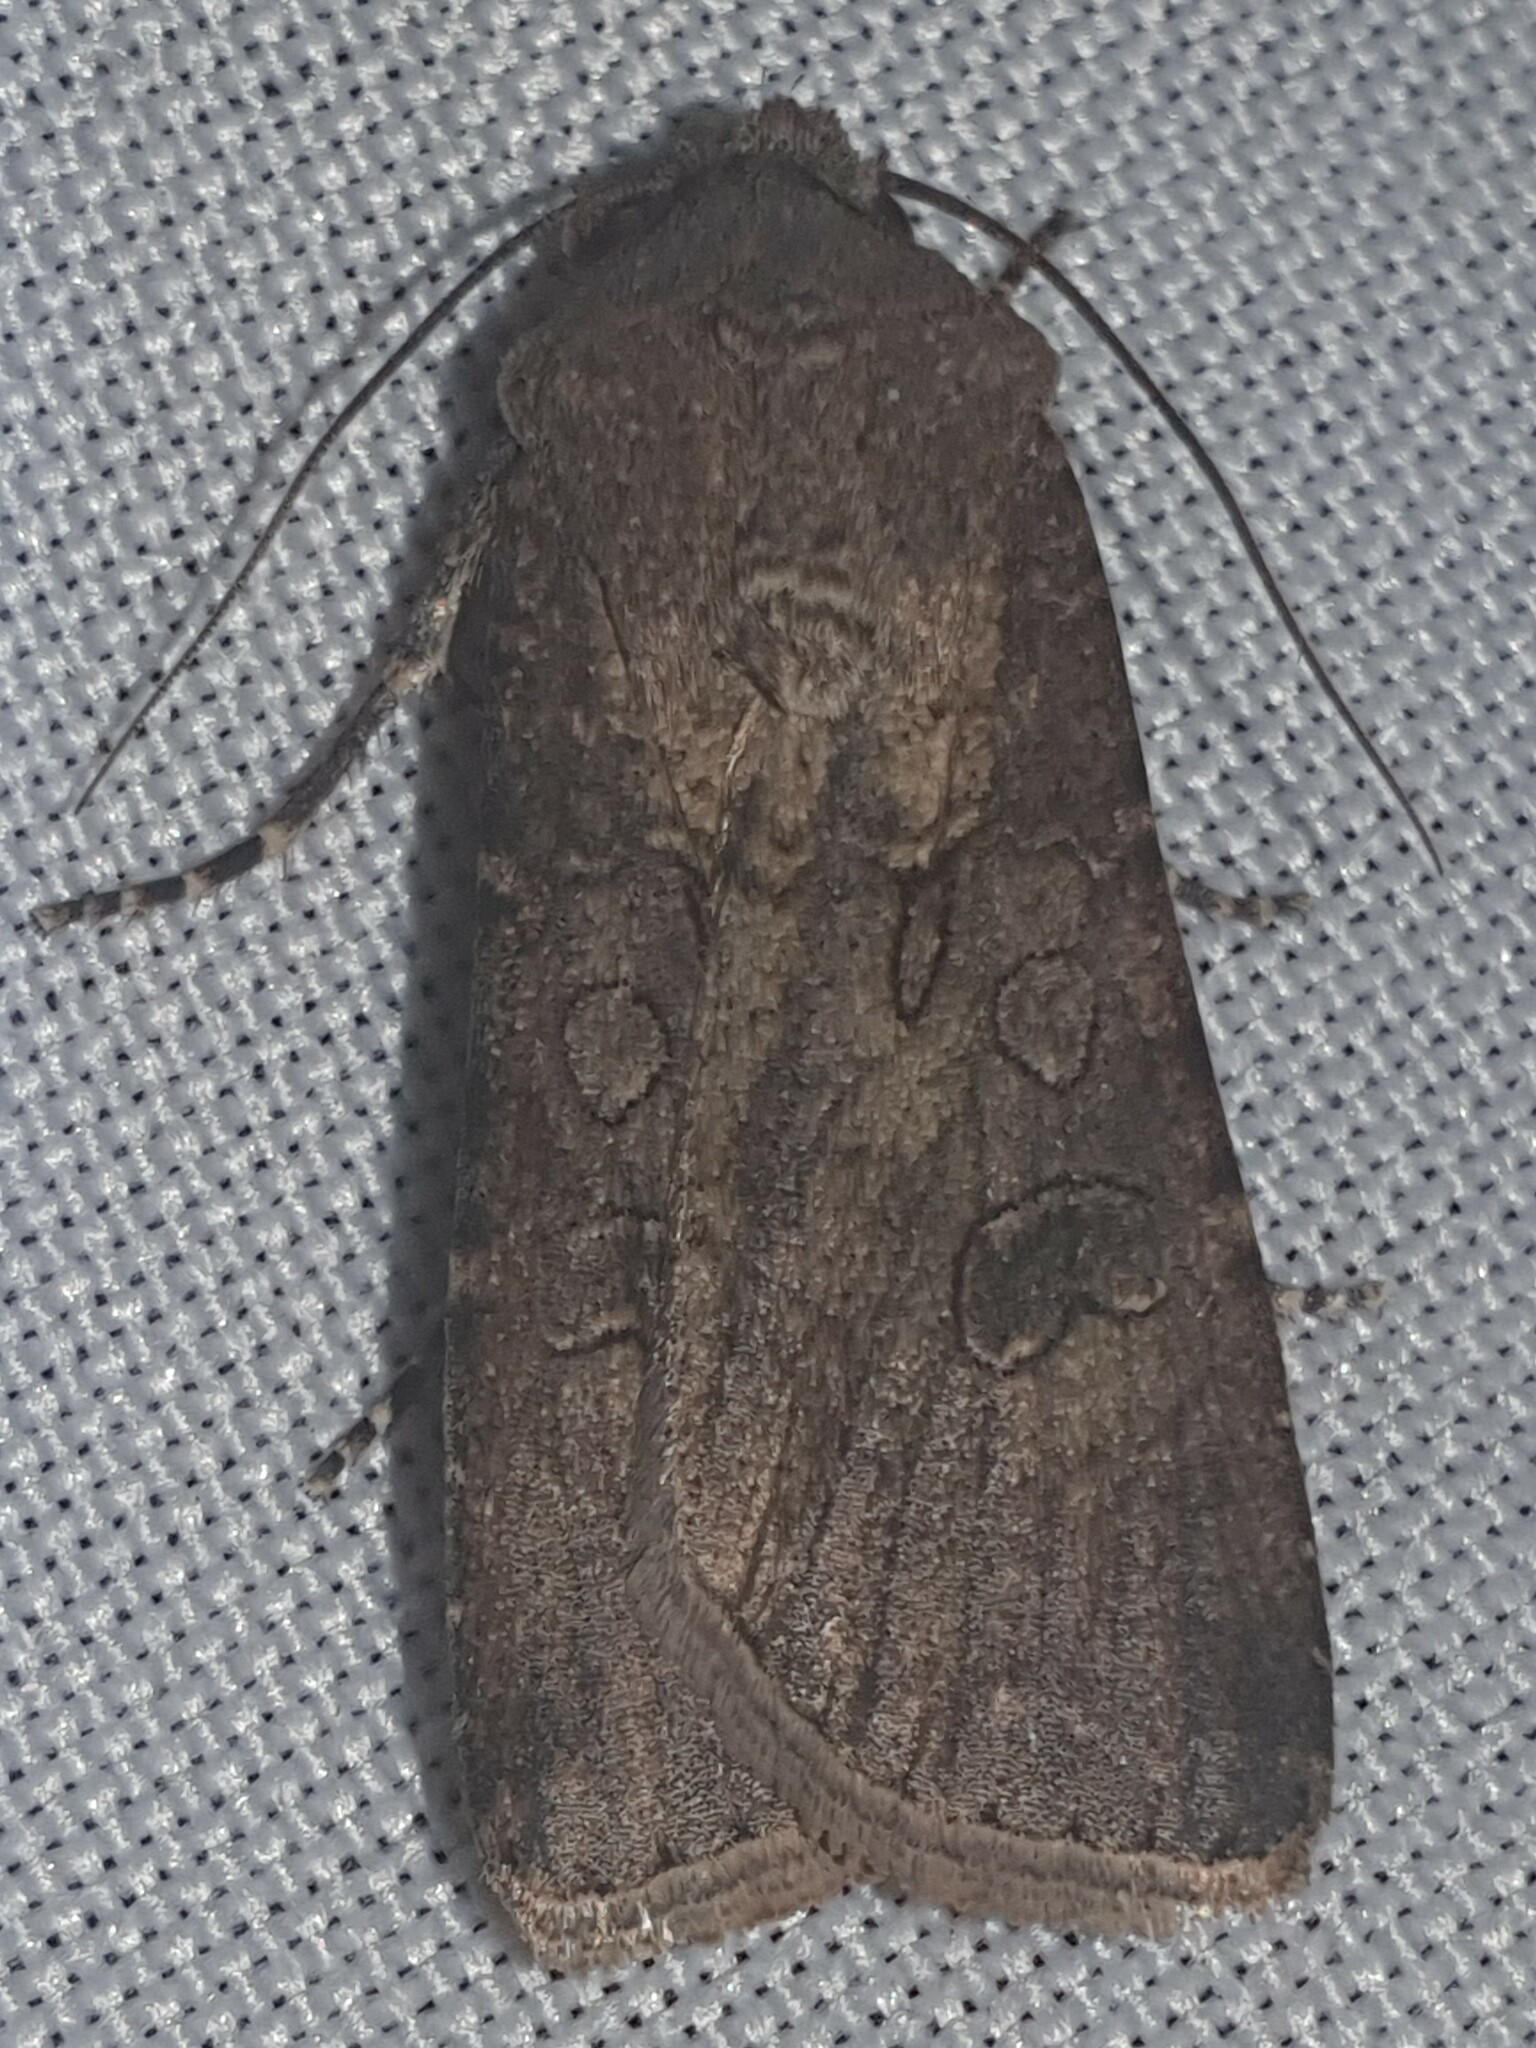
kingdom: Animalia
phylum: Arthropoda
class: Insecta
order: Lepidoptera
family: Noctuidae
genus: Agrotis
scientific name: Agrotis segetum
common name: Turnip moth
